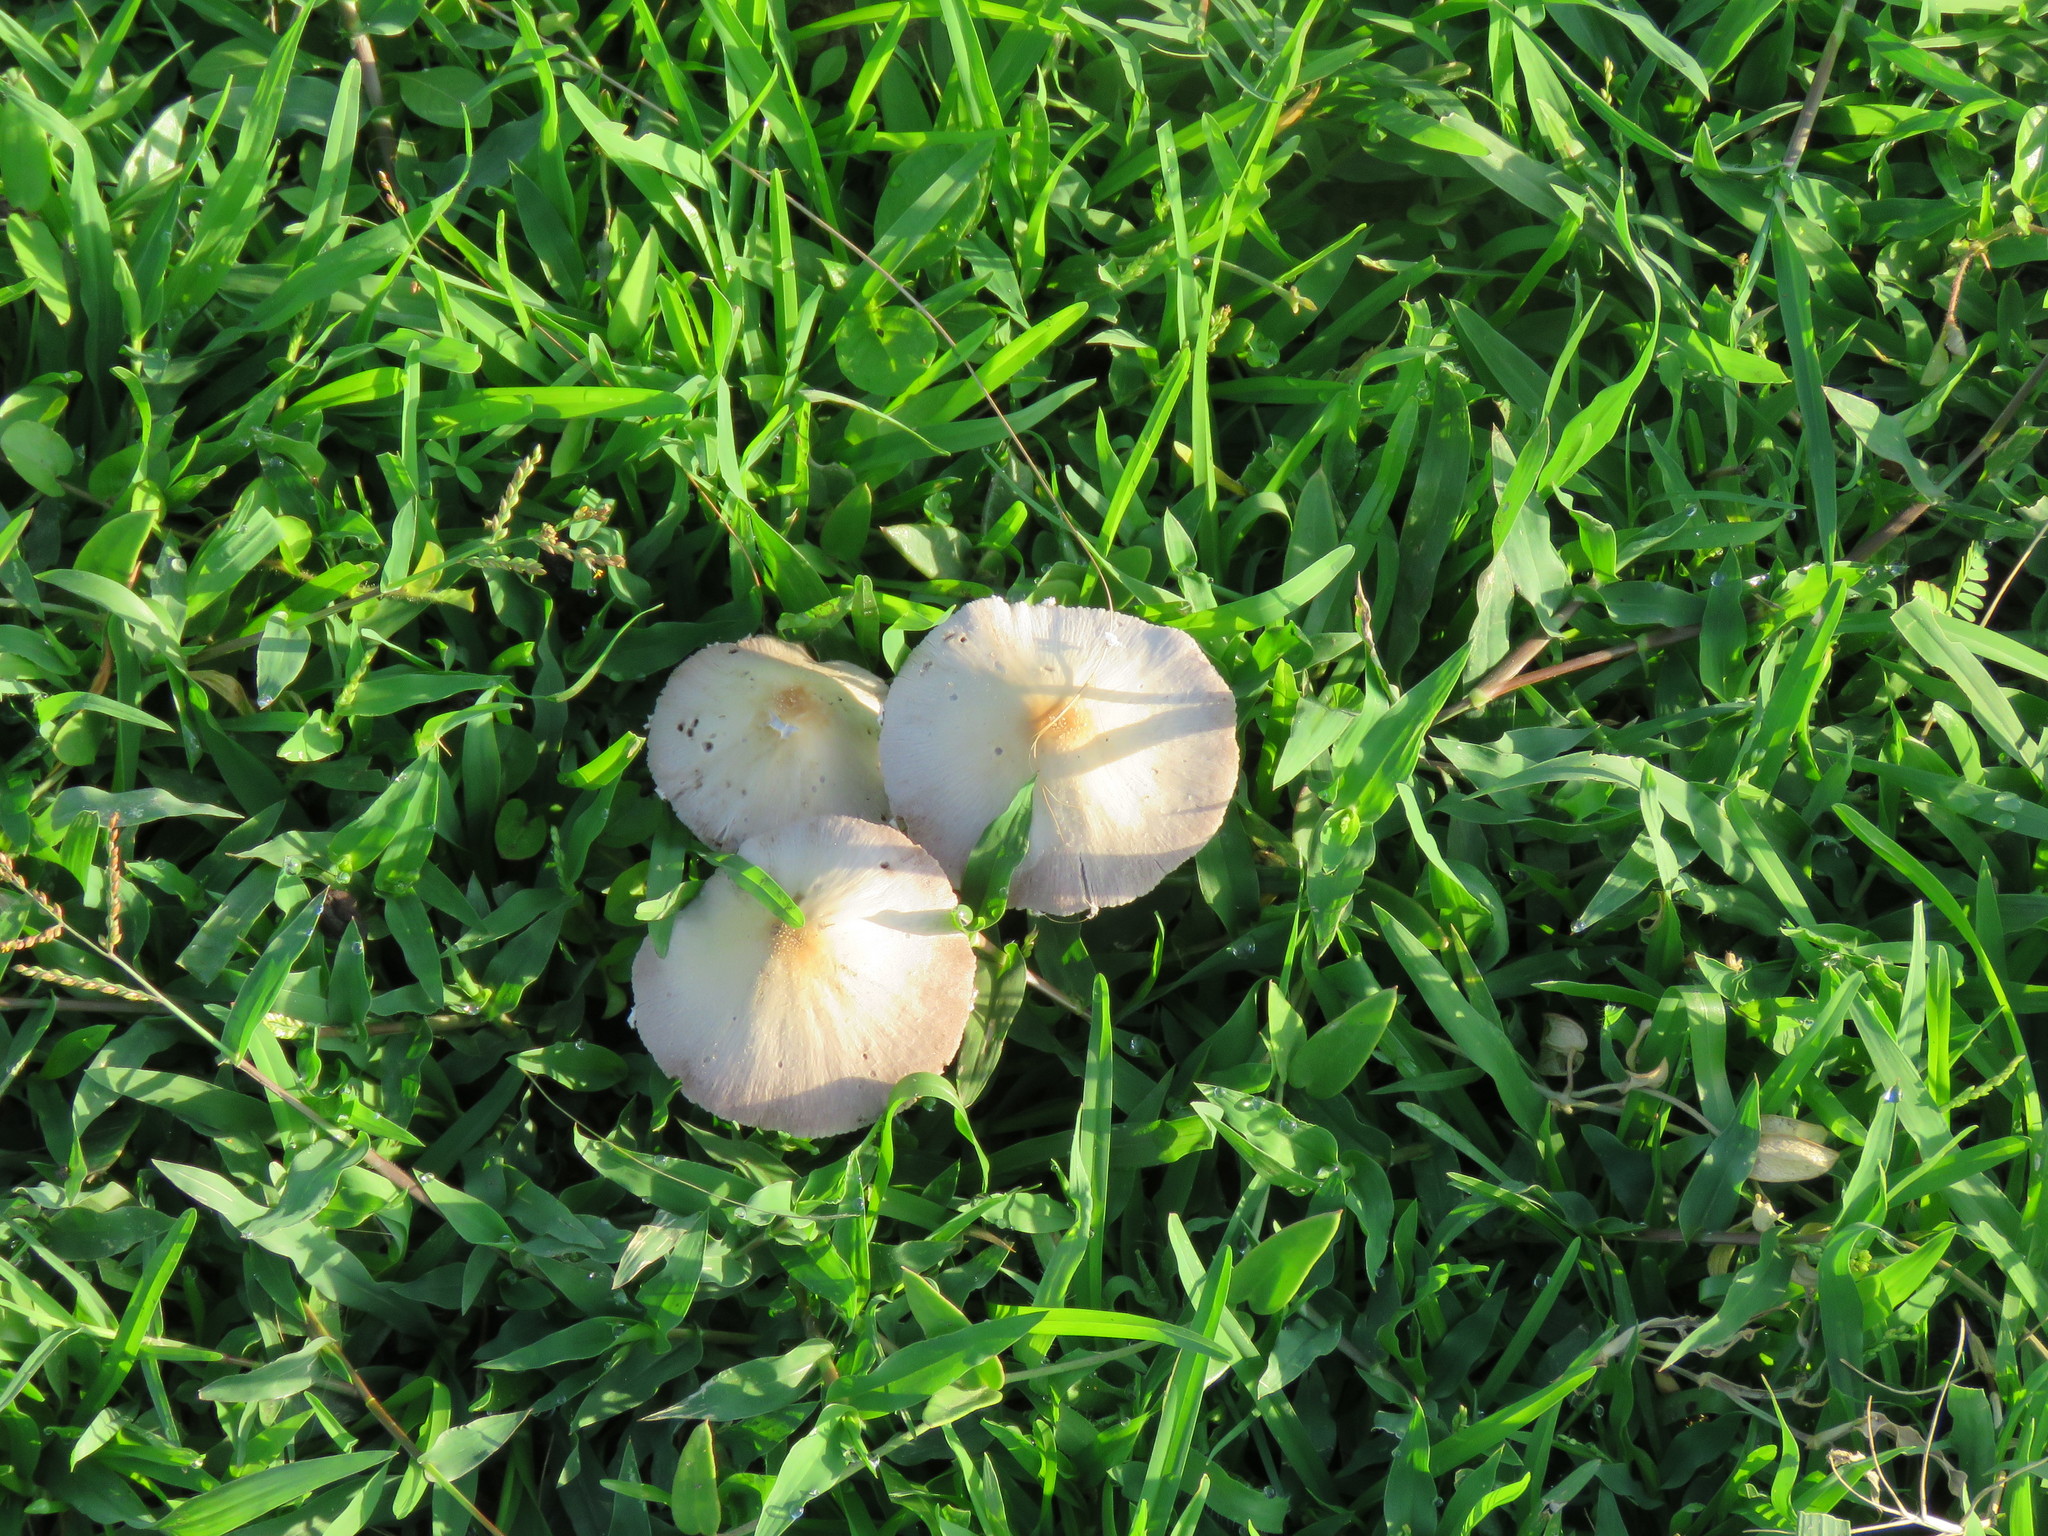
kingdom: Fungi
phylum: Basidiomycota
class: Agaricomycetes
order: Agaricales
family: Psathyrellaceae
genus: Candolleomyces
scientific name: Candolleomyces candolleanus
